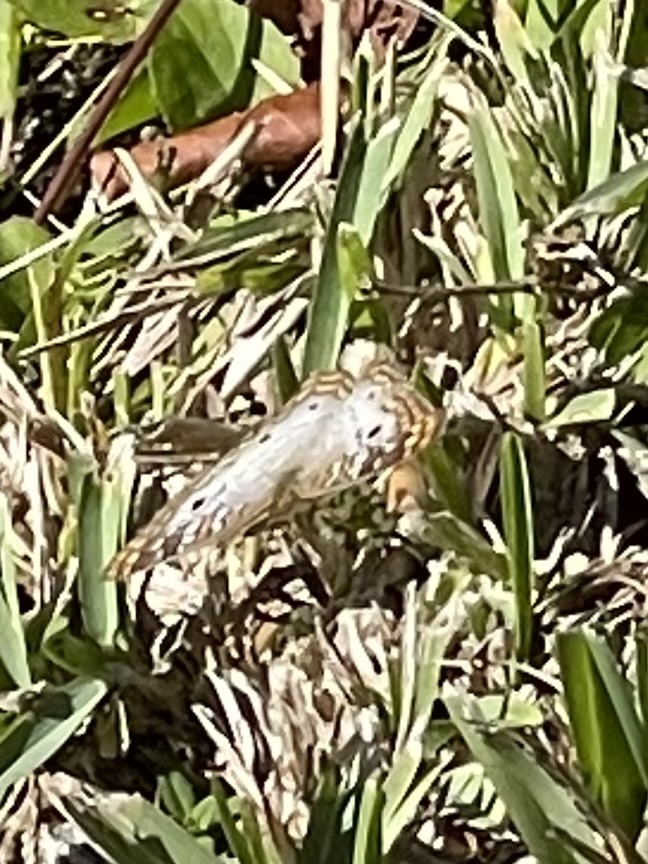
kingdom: Animalia
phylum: Arthropoda
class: Insecta
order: Lepidoptera
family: Nymphalidae
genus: Anartia
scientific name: Anartia jatrophae
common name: White peacock
